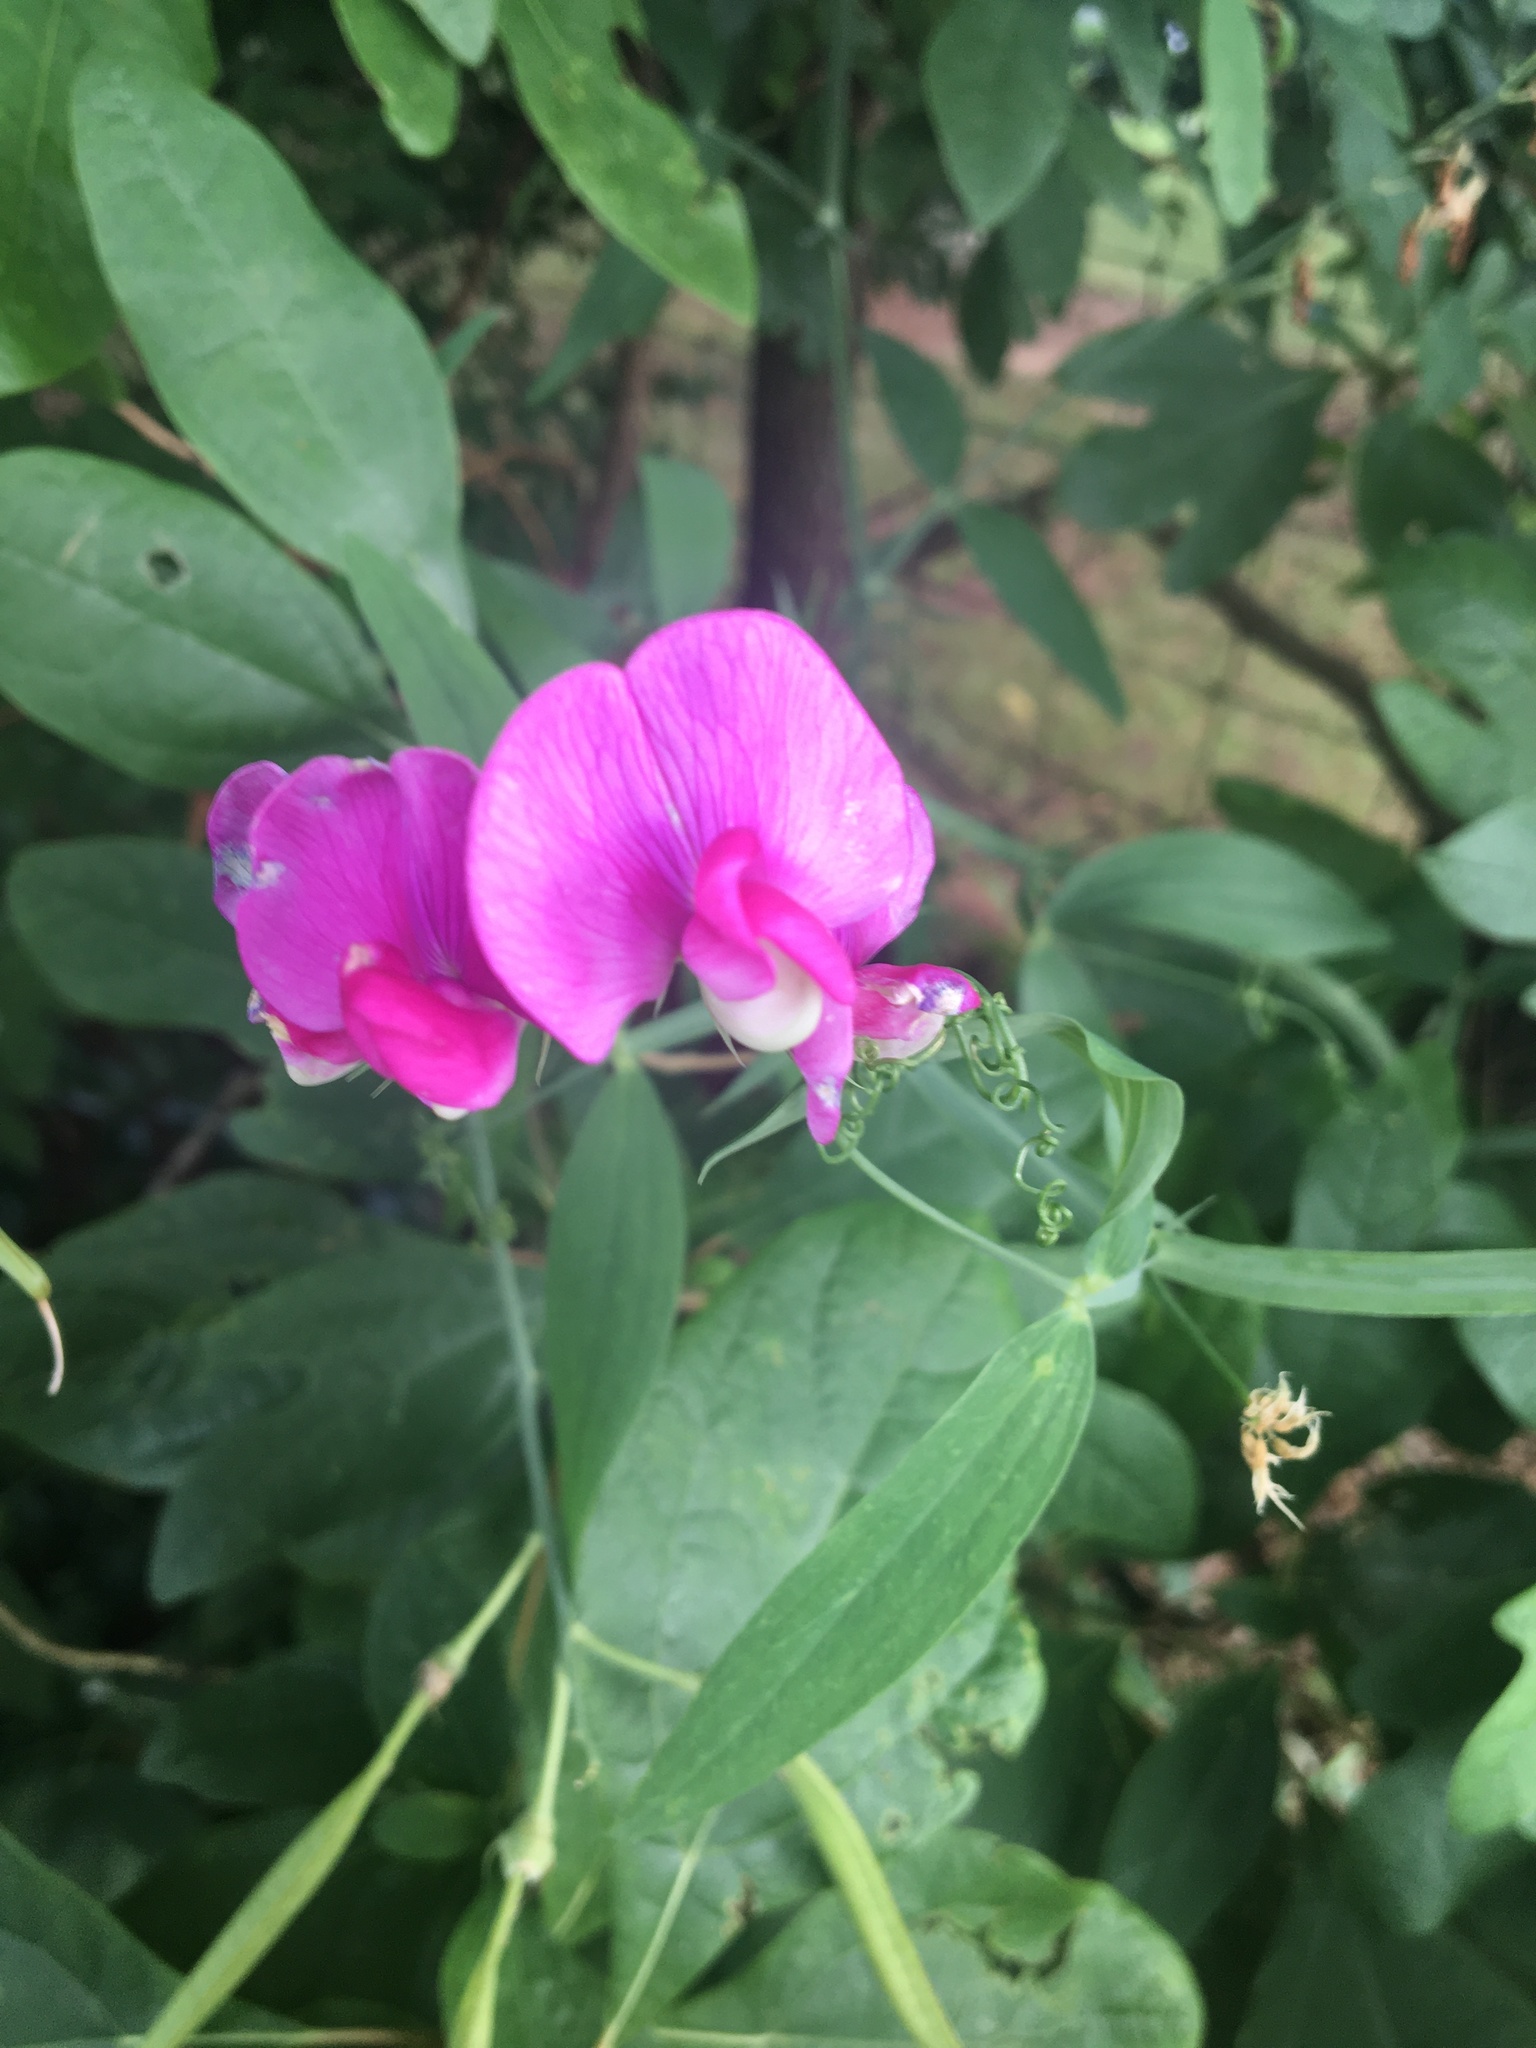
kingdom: Plantae
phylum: Tracheophyta
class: Magnoliopsida
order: Fabales
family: Fabaceae
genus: Lathyrus
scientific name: Lathyrus latifolius
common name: Perennial pea
